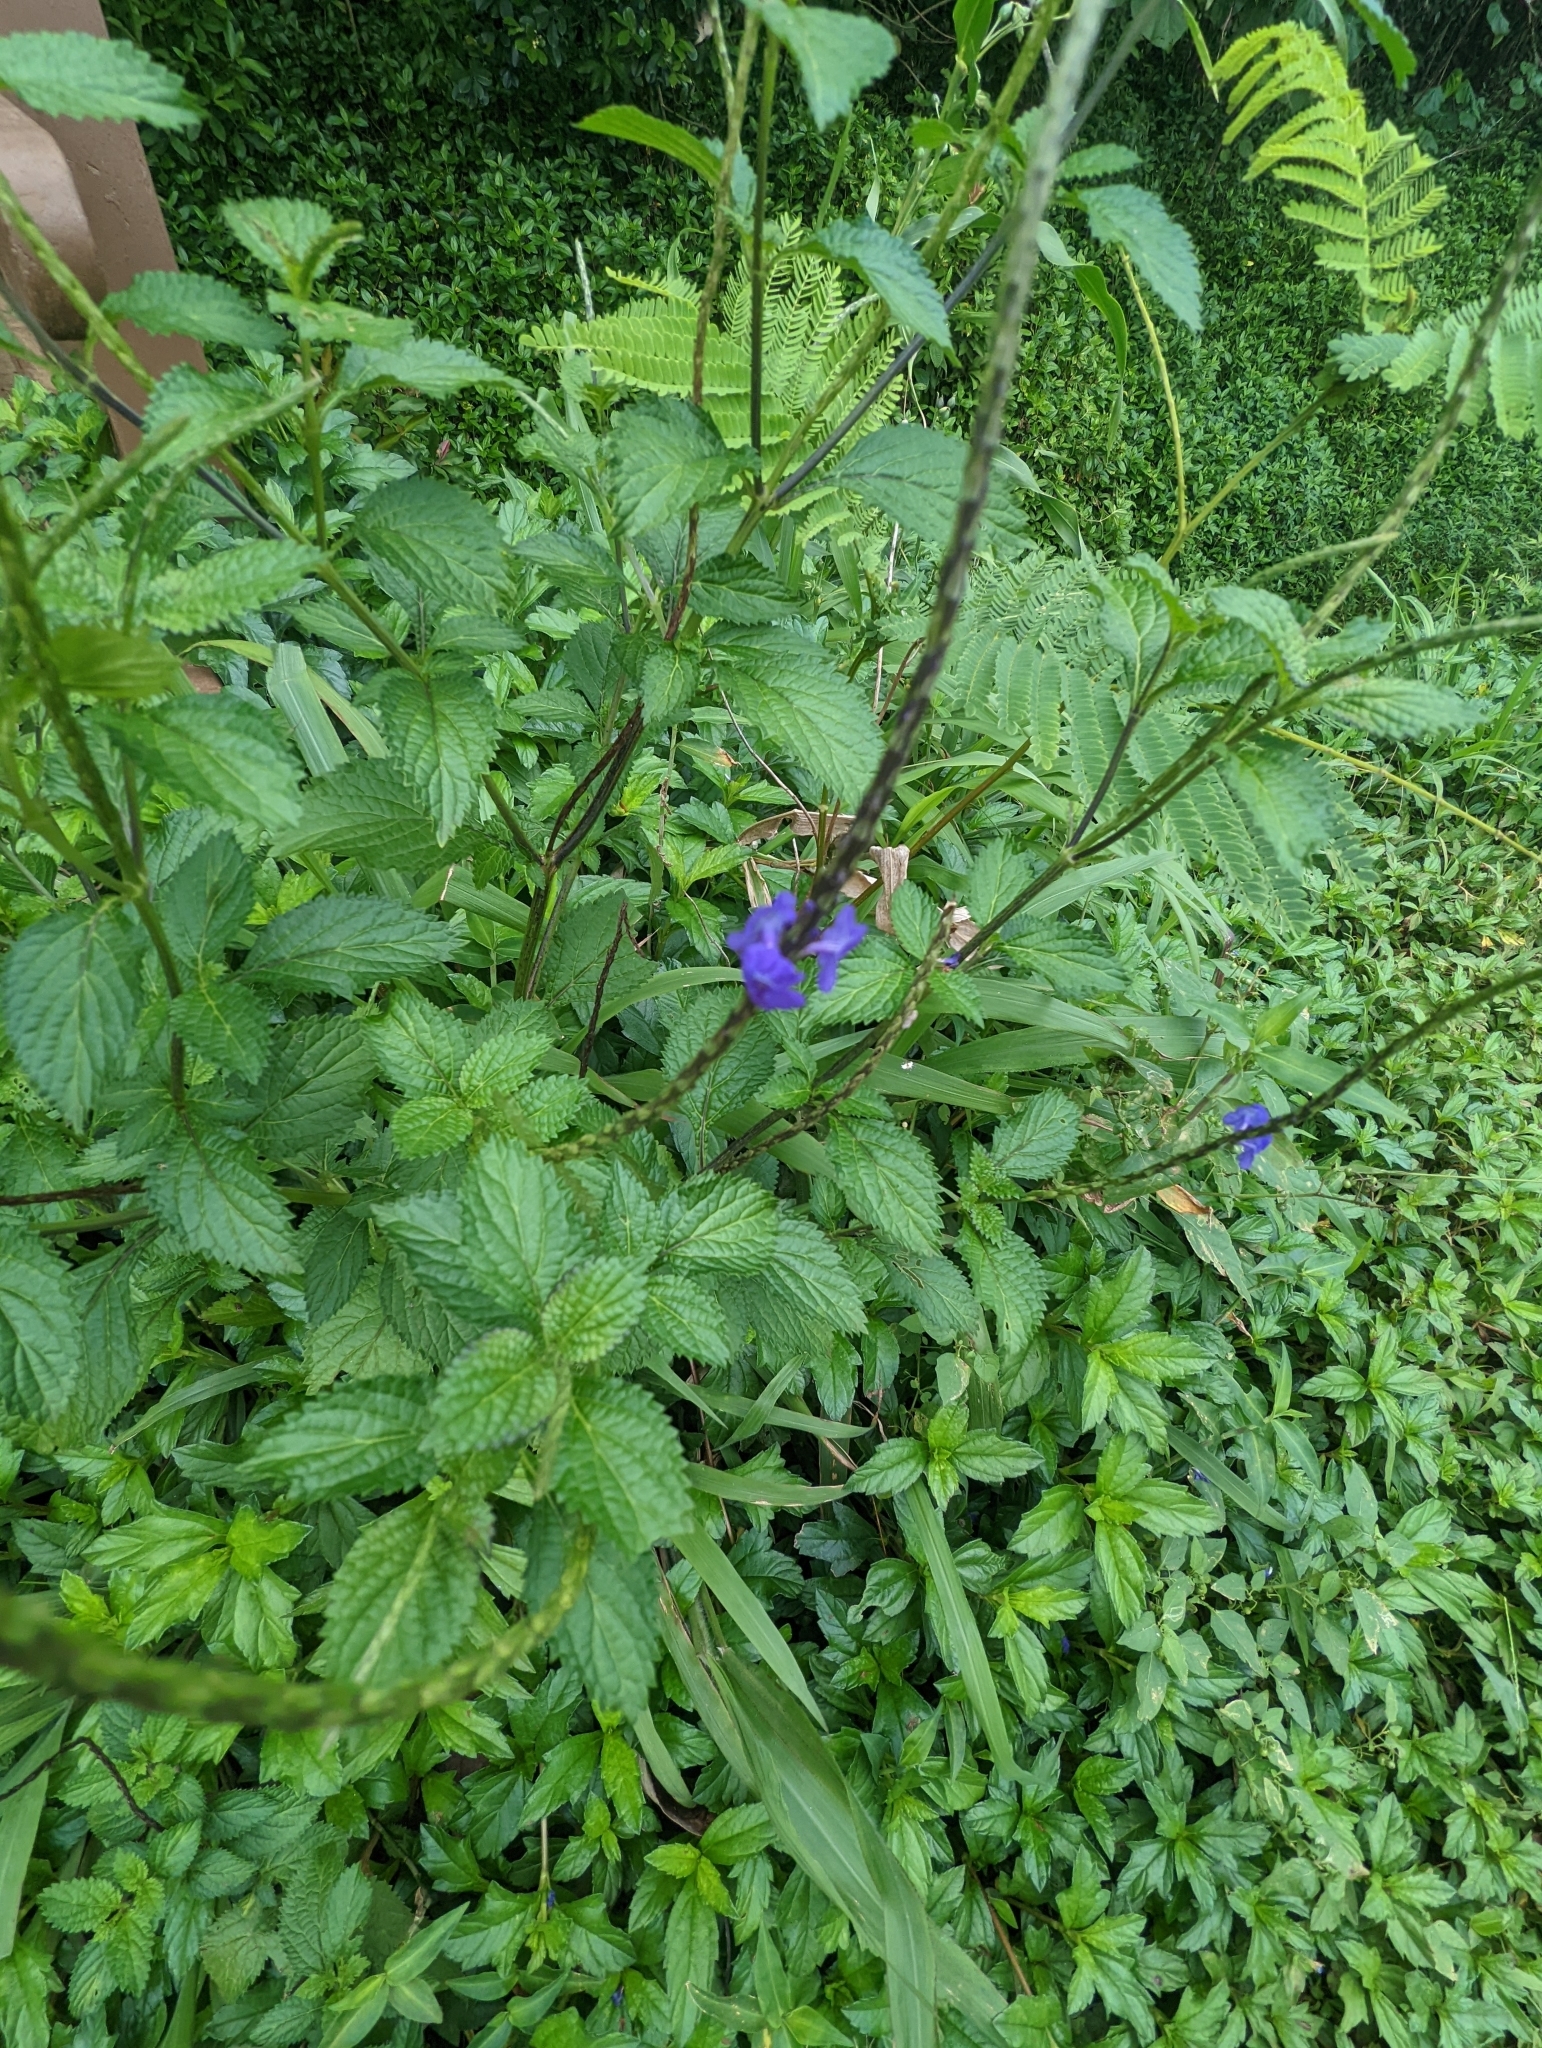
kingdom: Plantae
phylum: Tracheophyta
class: Magnoliopsida
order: Lamiales
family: Verbenaceae
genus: Stachytarpheta
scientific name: Stachytarpheta cayennensis
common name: Cayenne porterweed
